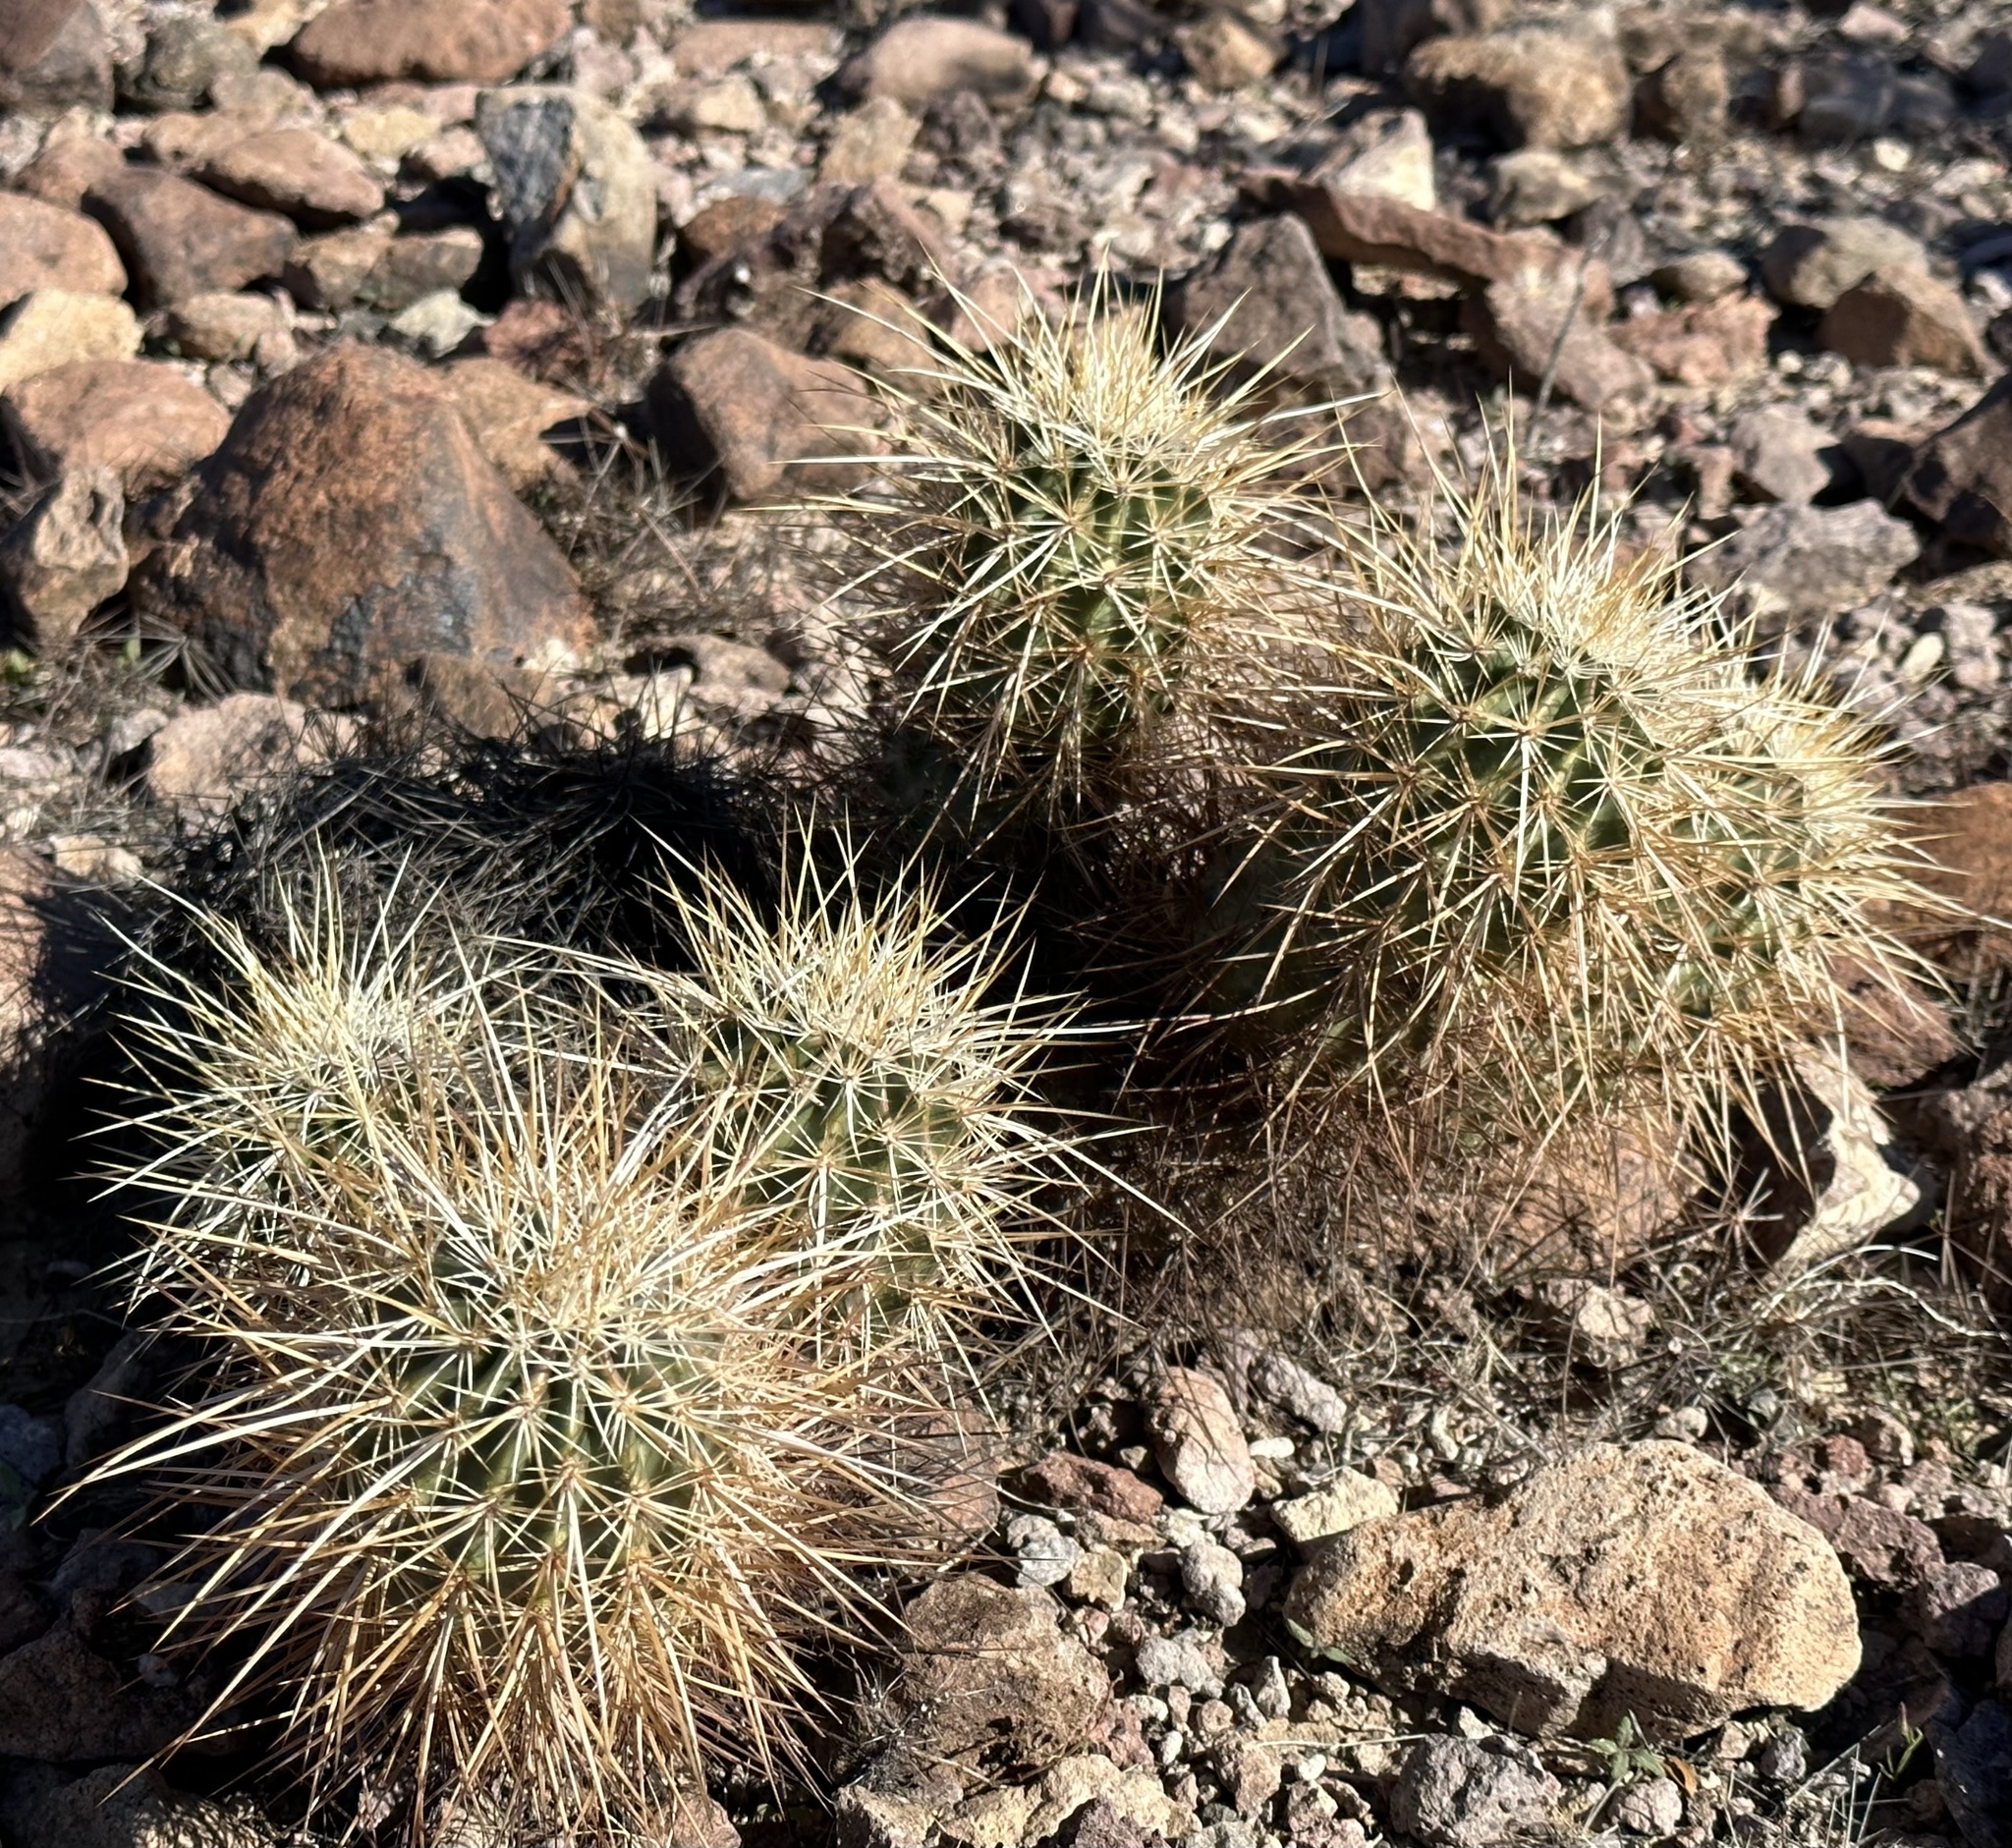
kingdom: Plantae
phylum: Tracheophyta
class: Magnoliopsida
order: Caryophyllales
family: Cactaceae
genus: Echinocereus
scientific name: Echinocereus engelmannii
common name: Engelmann's hedgehog cactus
